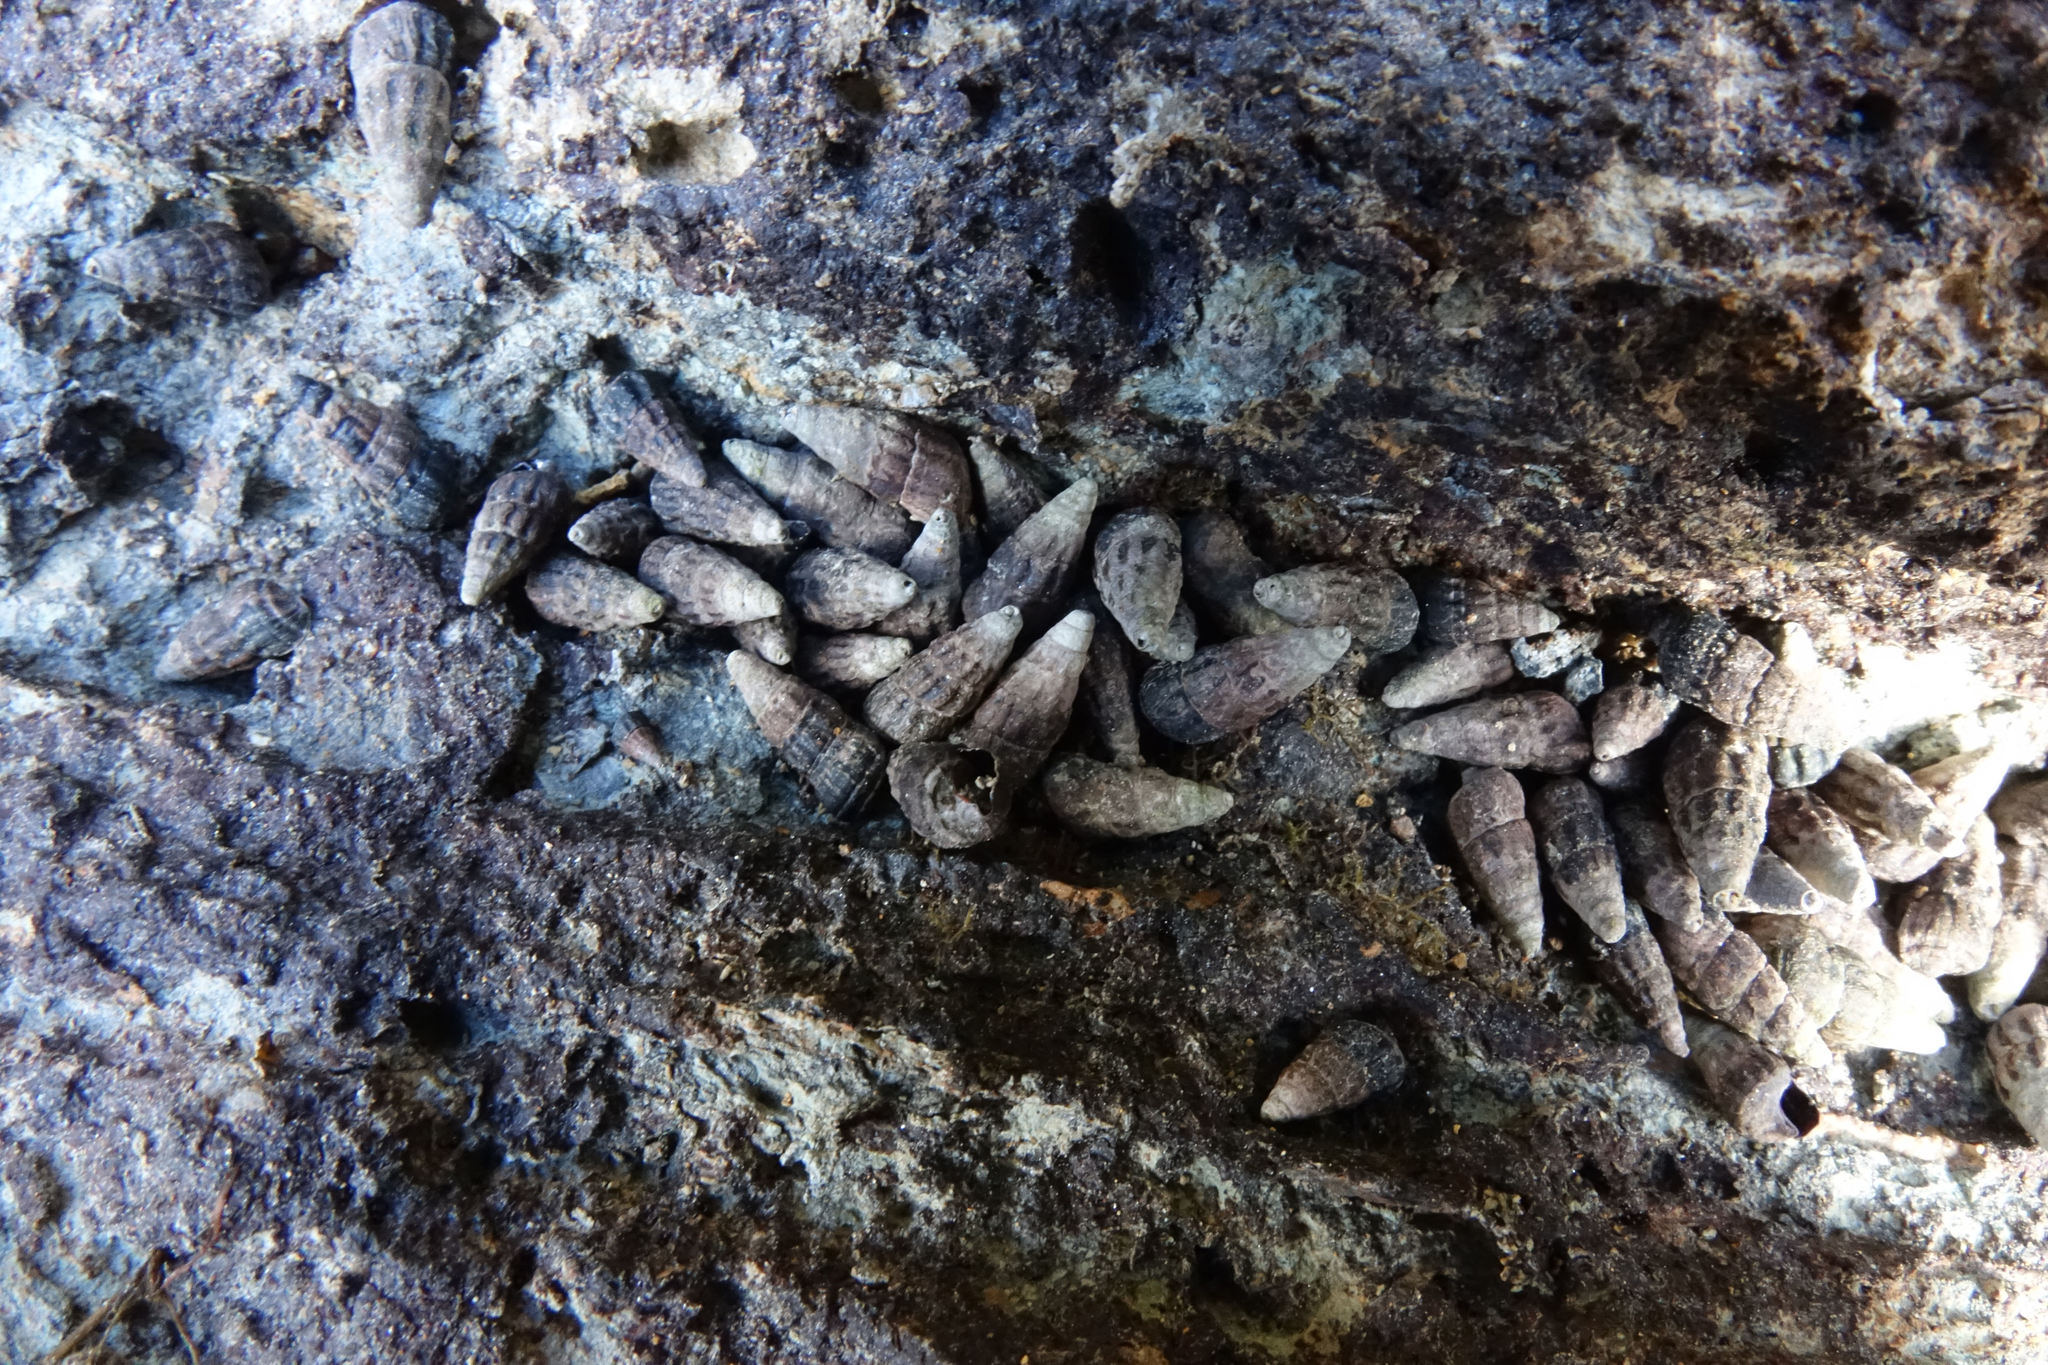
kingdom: Animalia
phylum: Mollusca
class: Gastropoda
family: Batillariidae
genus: Zeacumantus
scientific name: Zeacumantus subcarinatus
